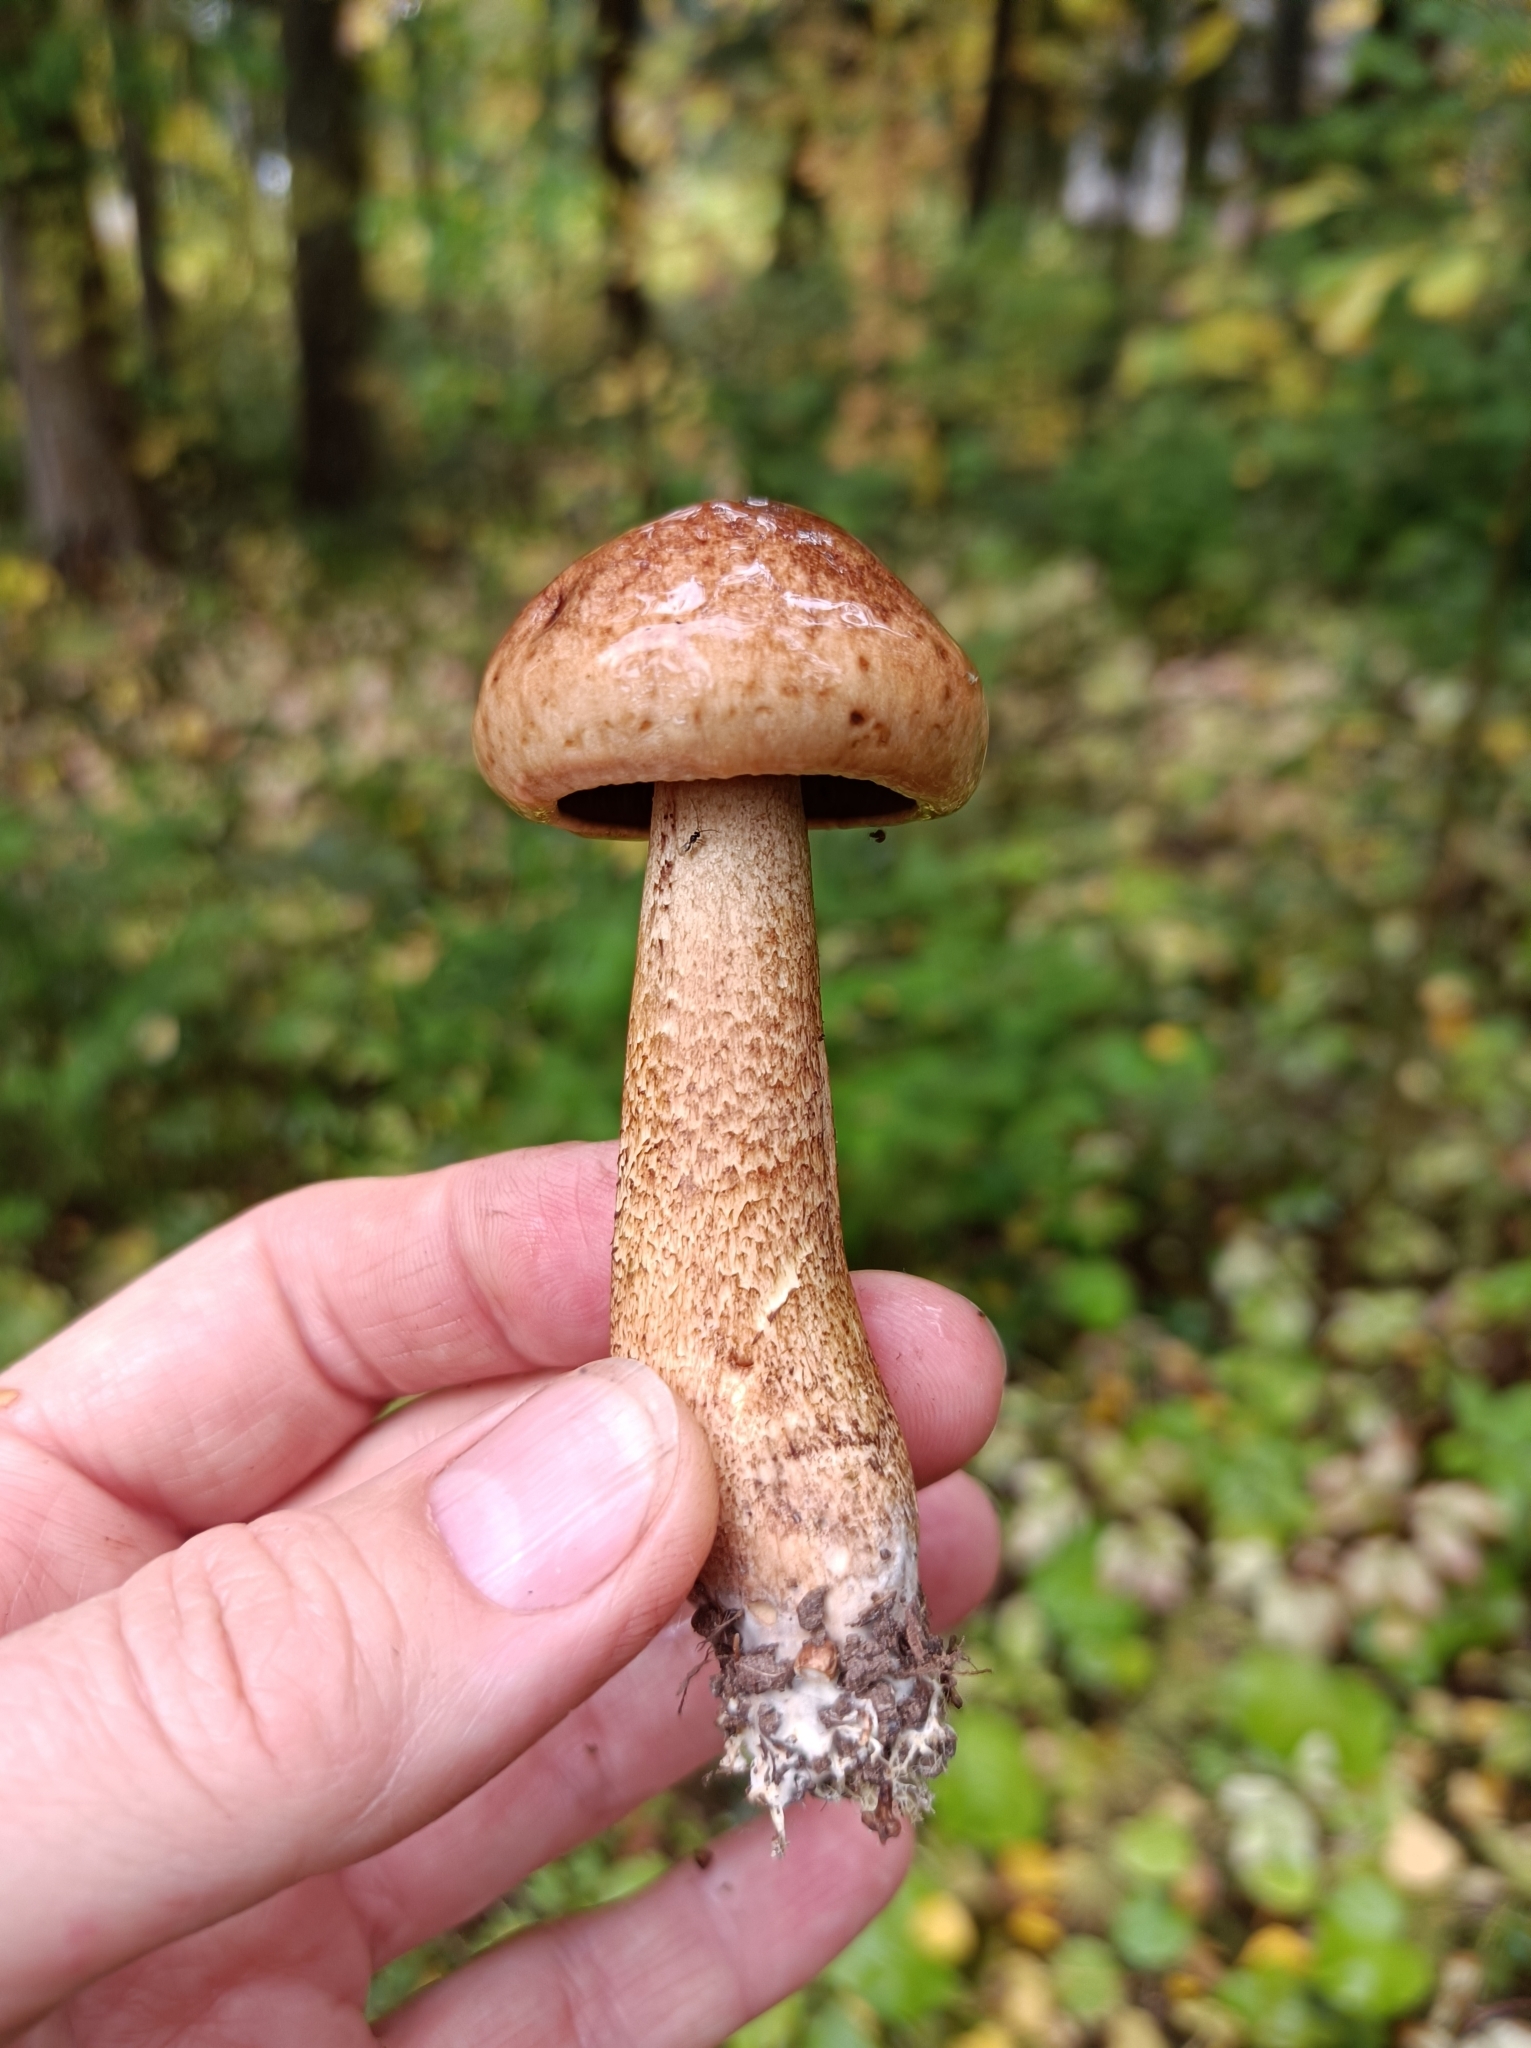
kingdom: Fungi
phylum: Basidiomycota
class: Agaricomycetes
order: Agaricales
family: Tricholomataceae
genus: Tricholoma
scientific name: Tricholoma fulvum
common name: Birch knight
